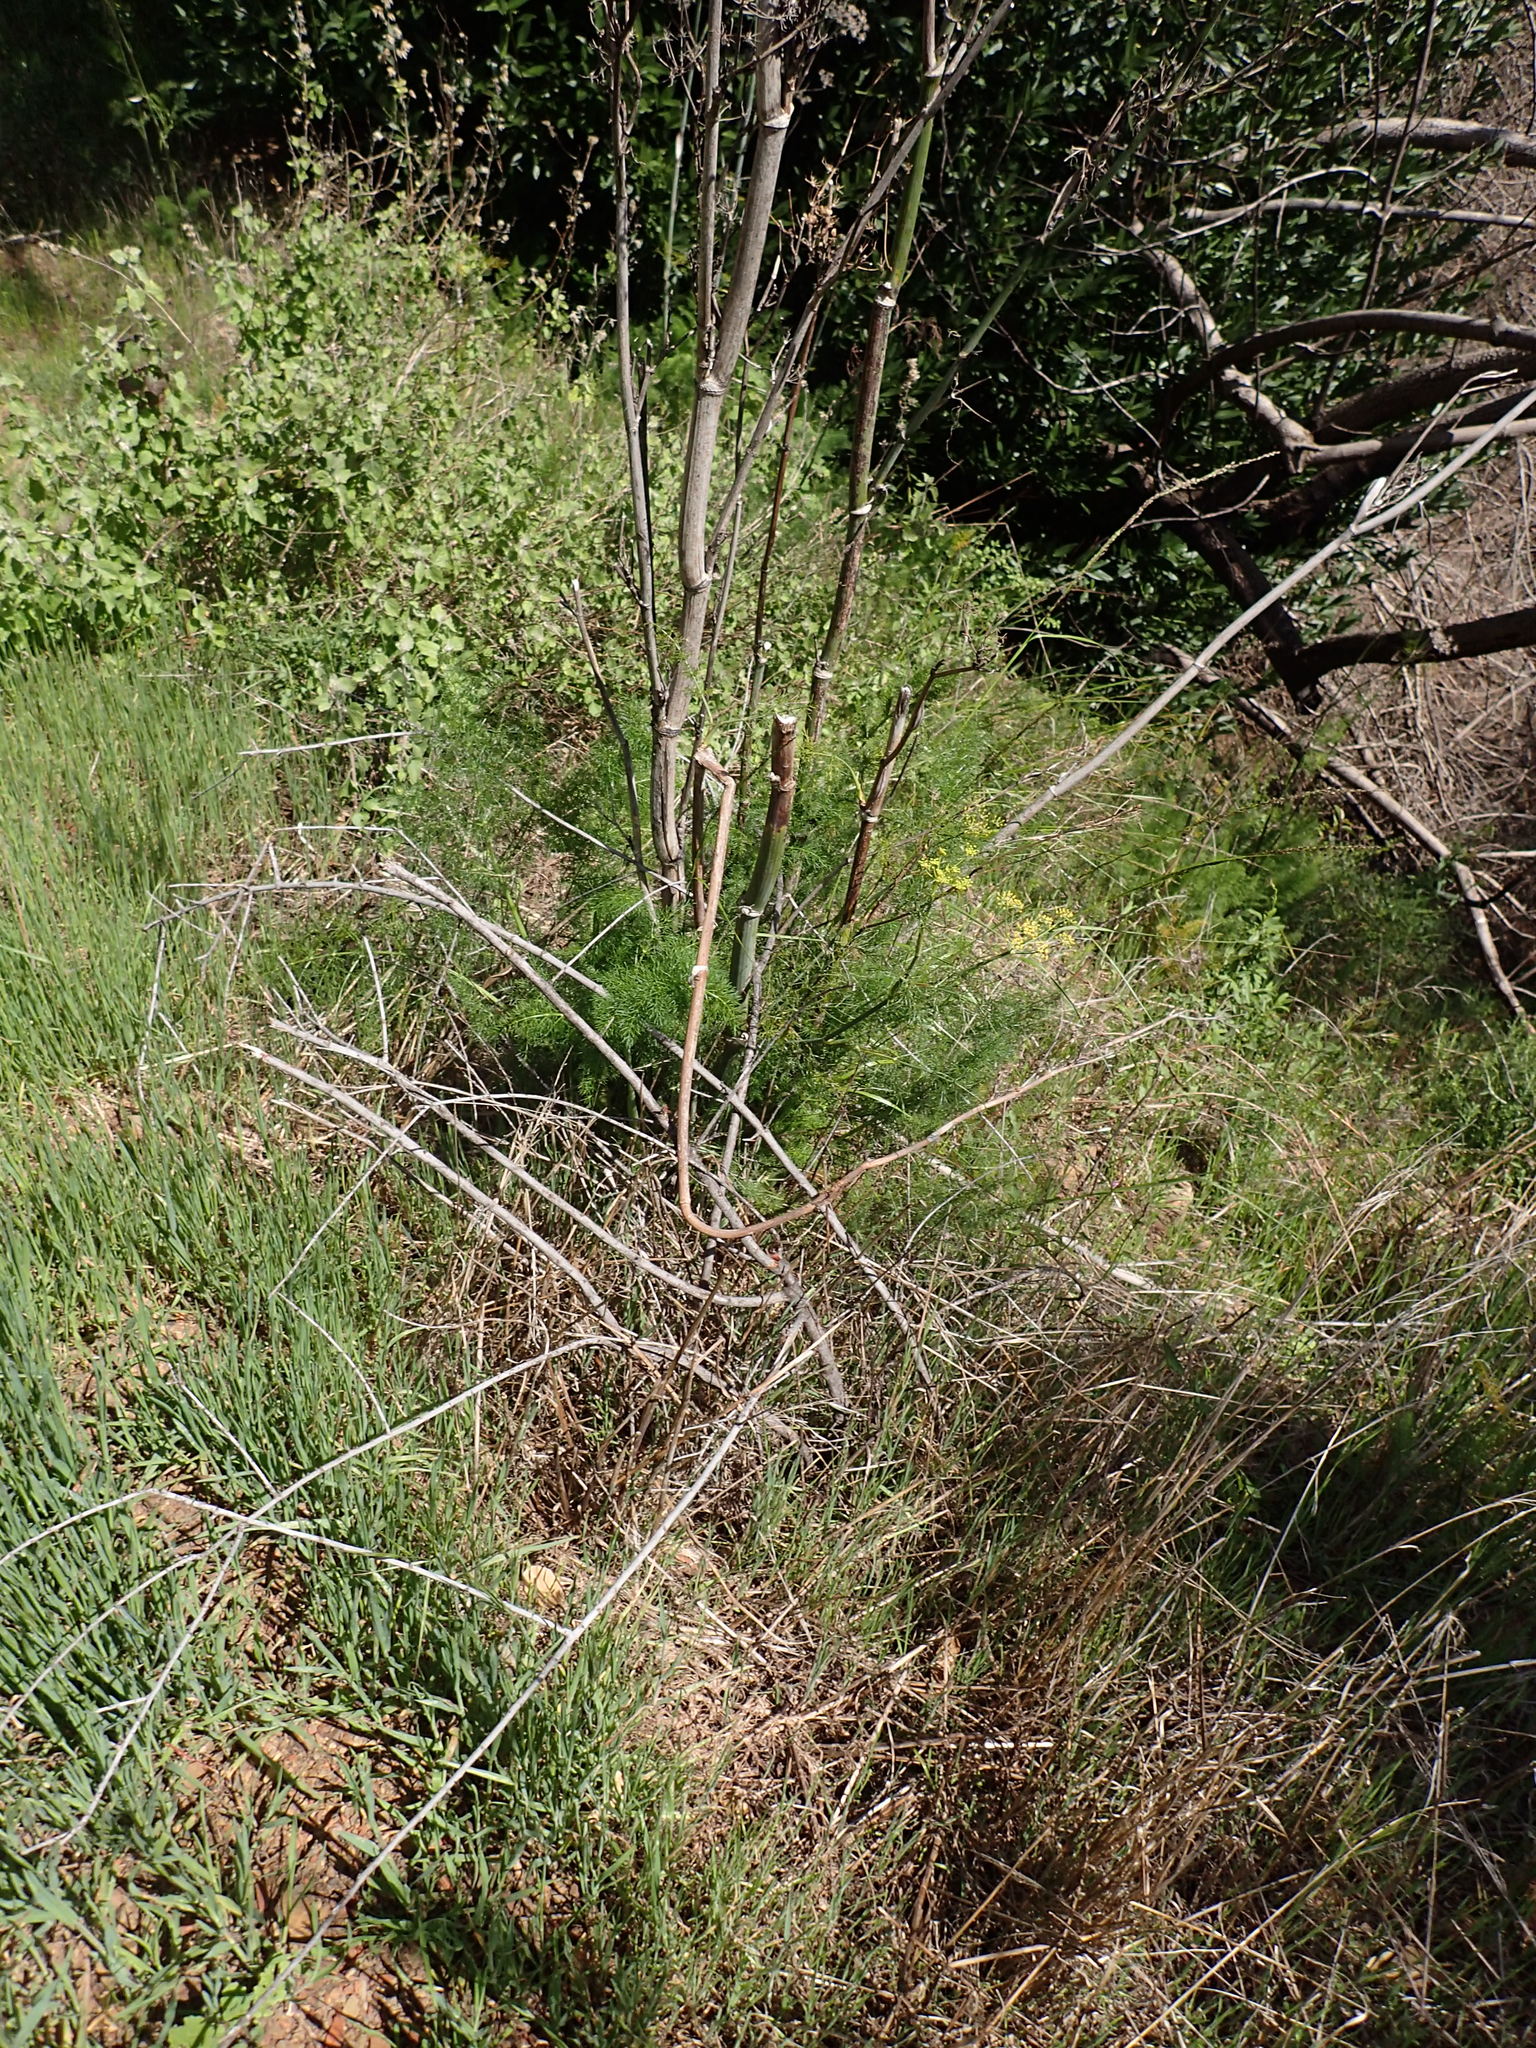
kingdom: Plantae
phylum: Tracheophyta
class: Magnoliopsida
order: Apiales
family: Apiaceae
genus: Foeniculum
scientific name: Foeniculum vulgare
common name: Fennel
